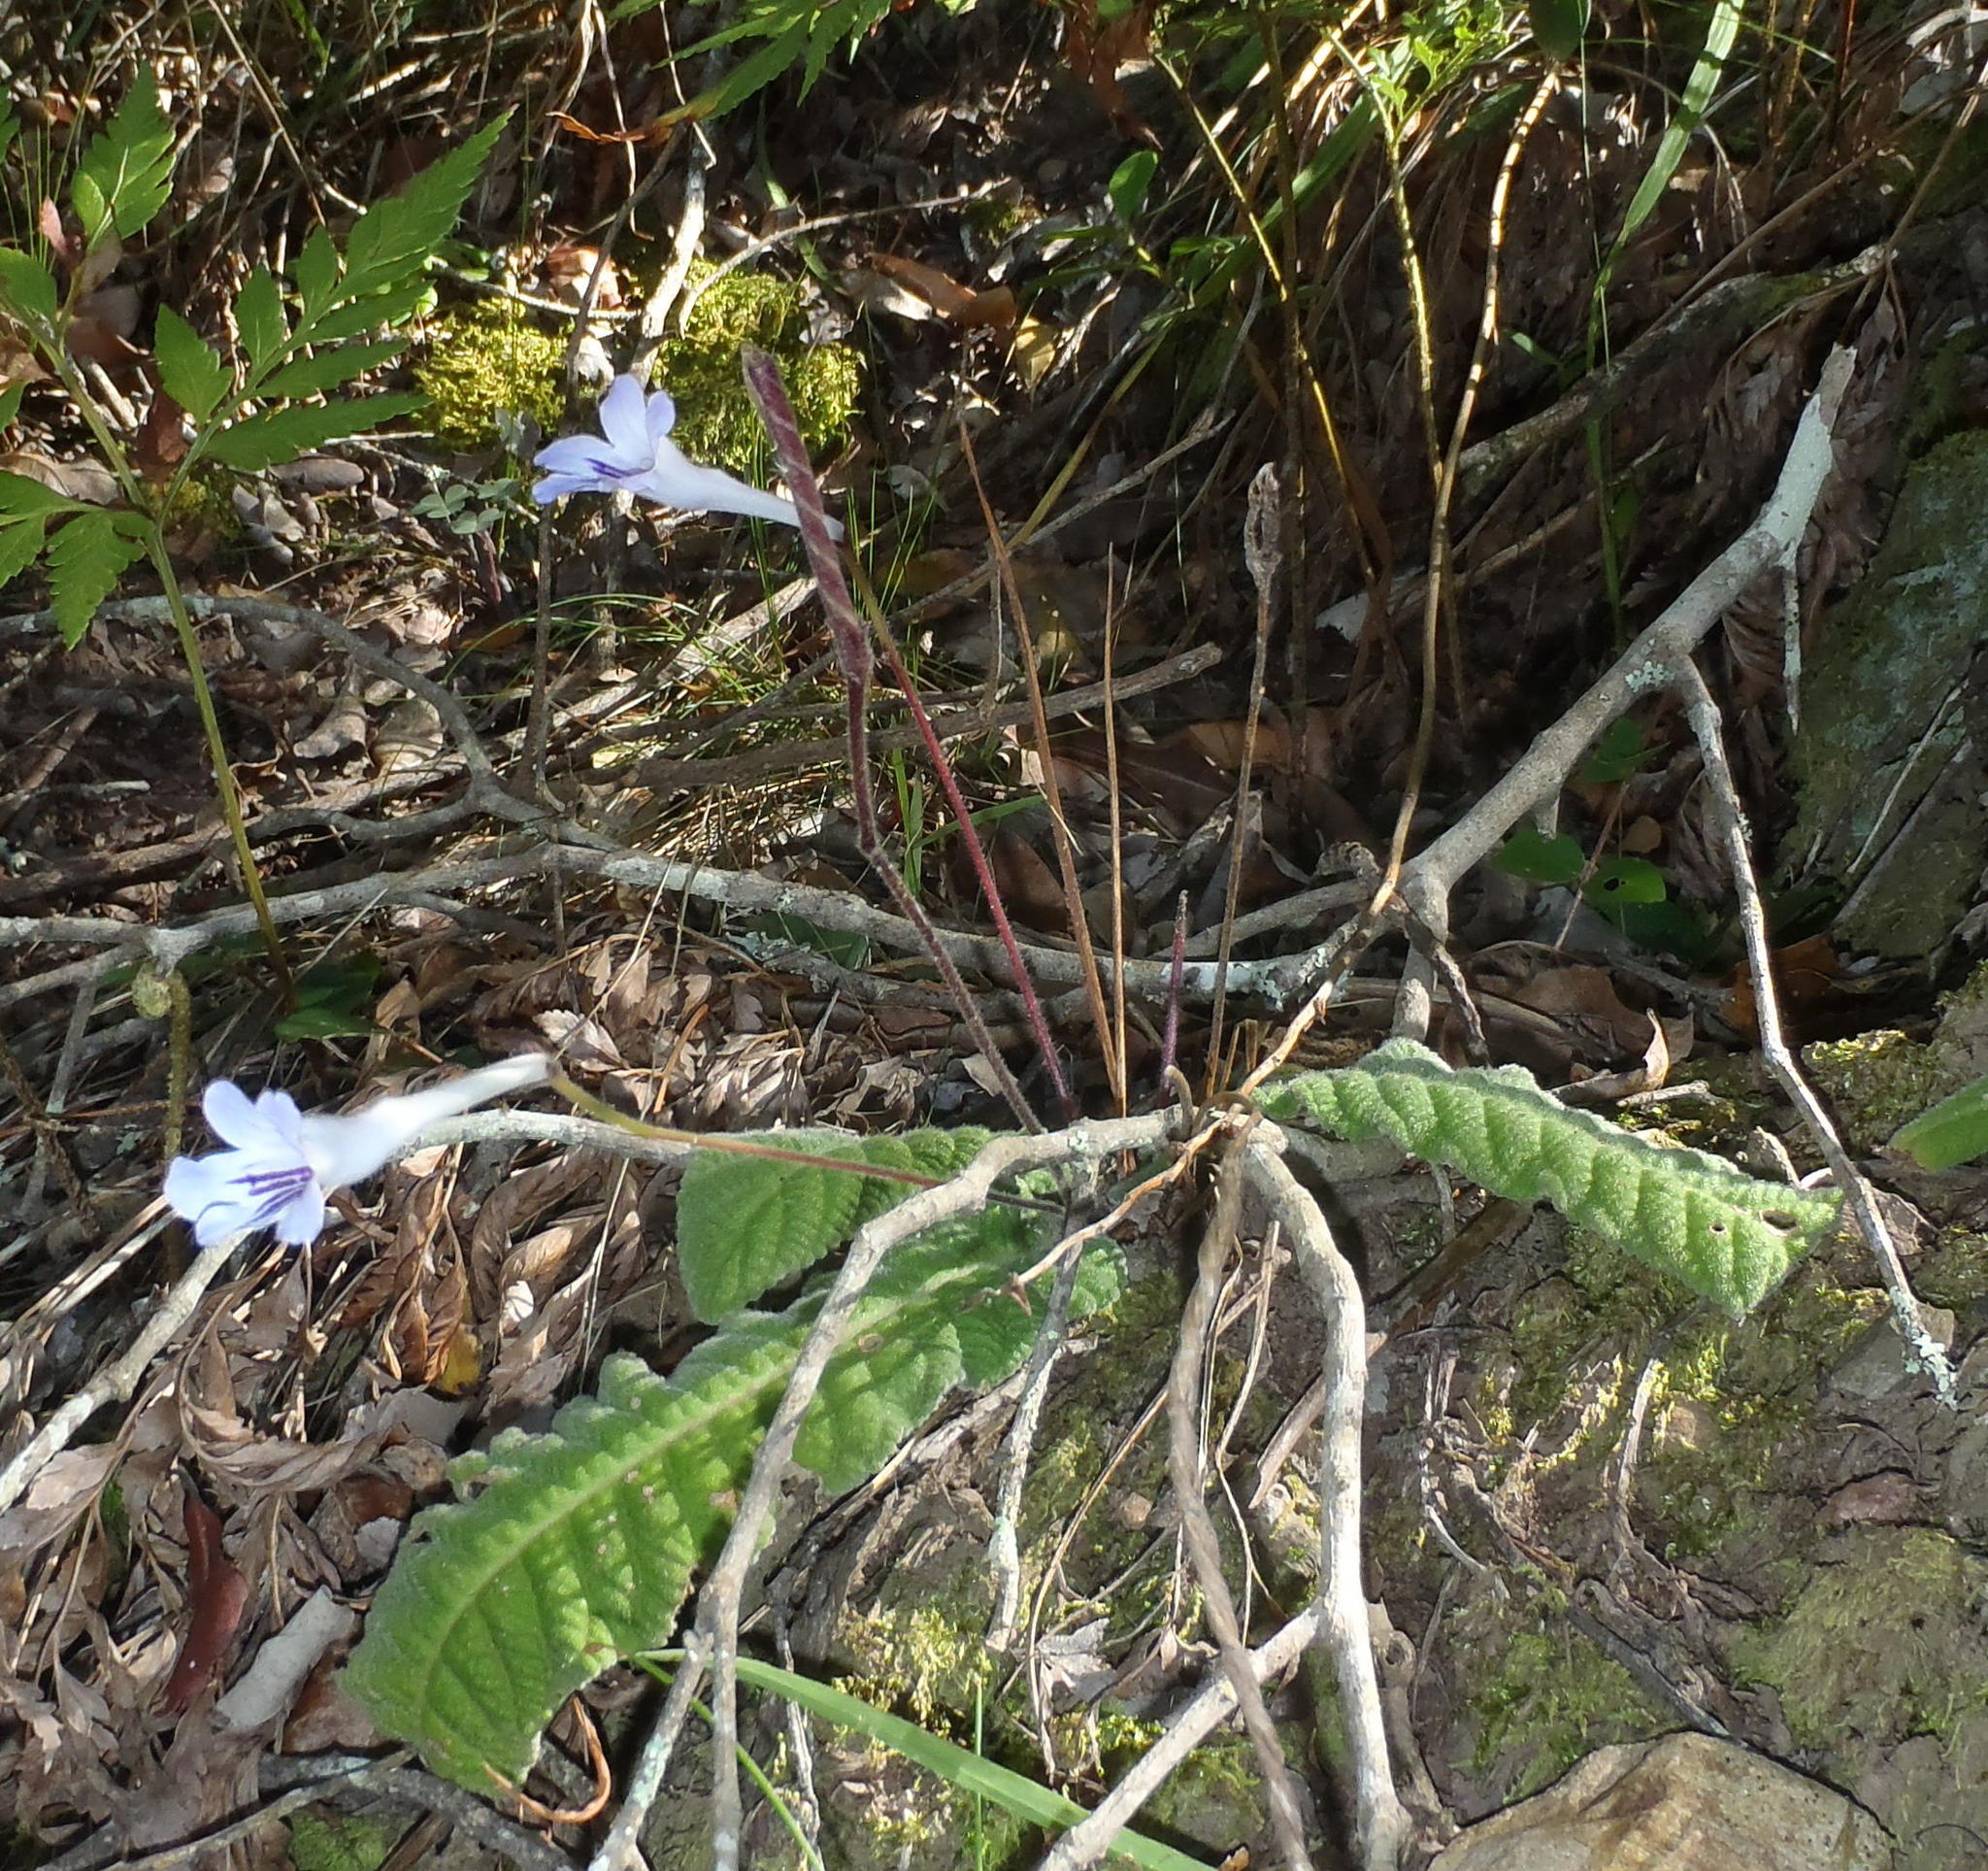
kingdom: Plantae
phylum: Tracheophyta
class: Magnoliopsida
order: Lamiales
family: Gesneriaceae
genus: Streptocarpus
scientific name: Streptocarpus rexii
